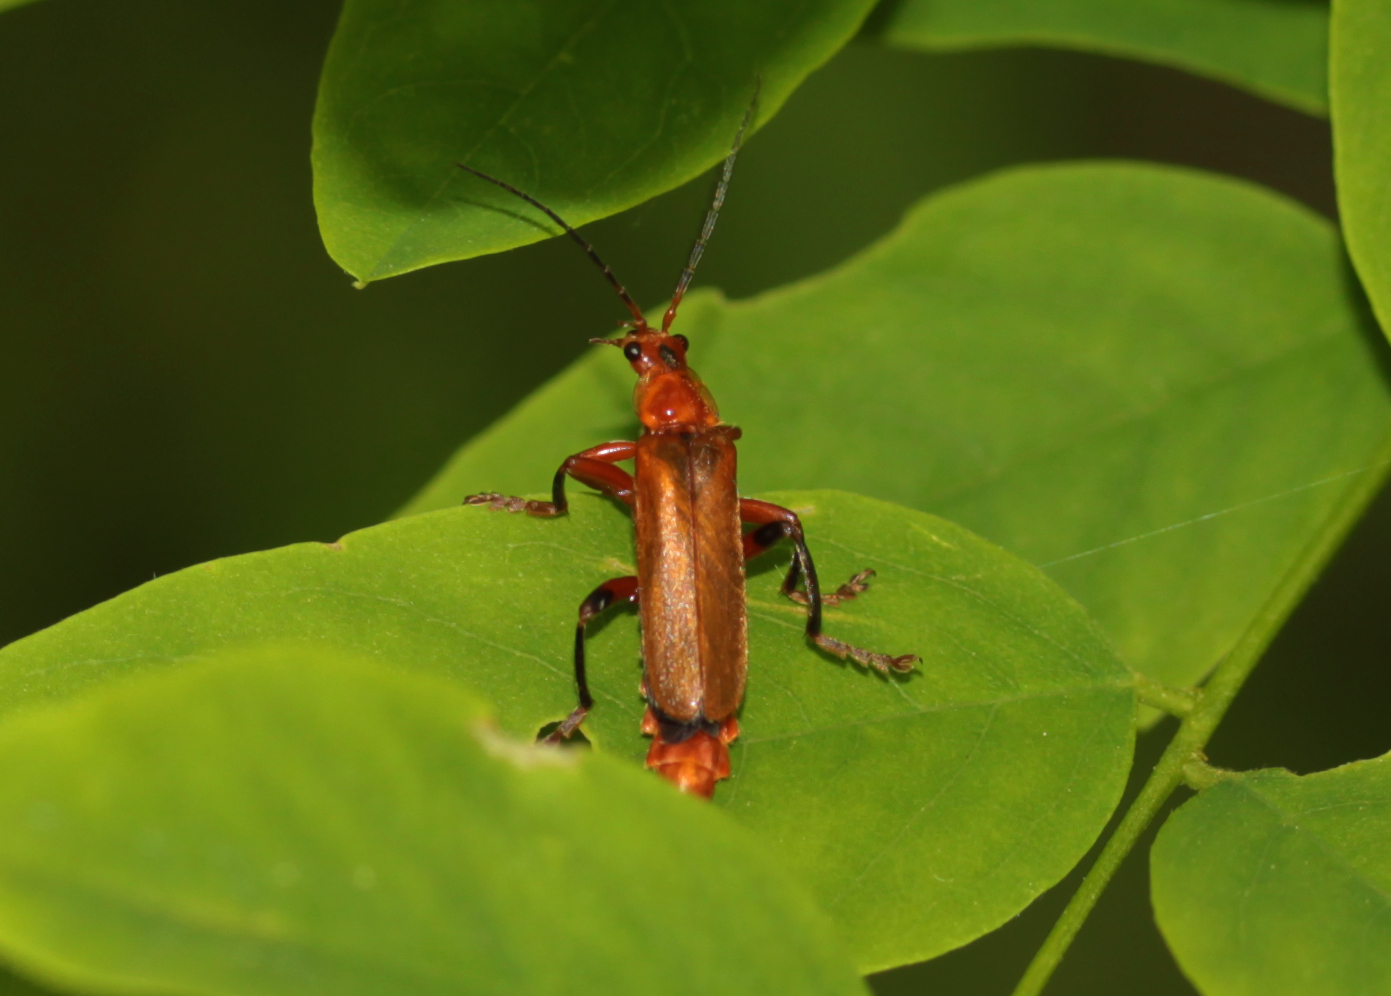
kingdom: Animalia
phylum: Arthropoda
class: Insecta
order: Coleoptera
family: Cantharidae
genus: Cantharis
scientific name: Cantharis livida
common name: Livid soldier beetle
